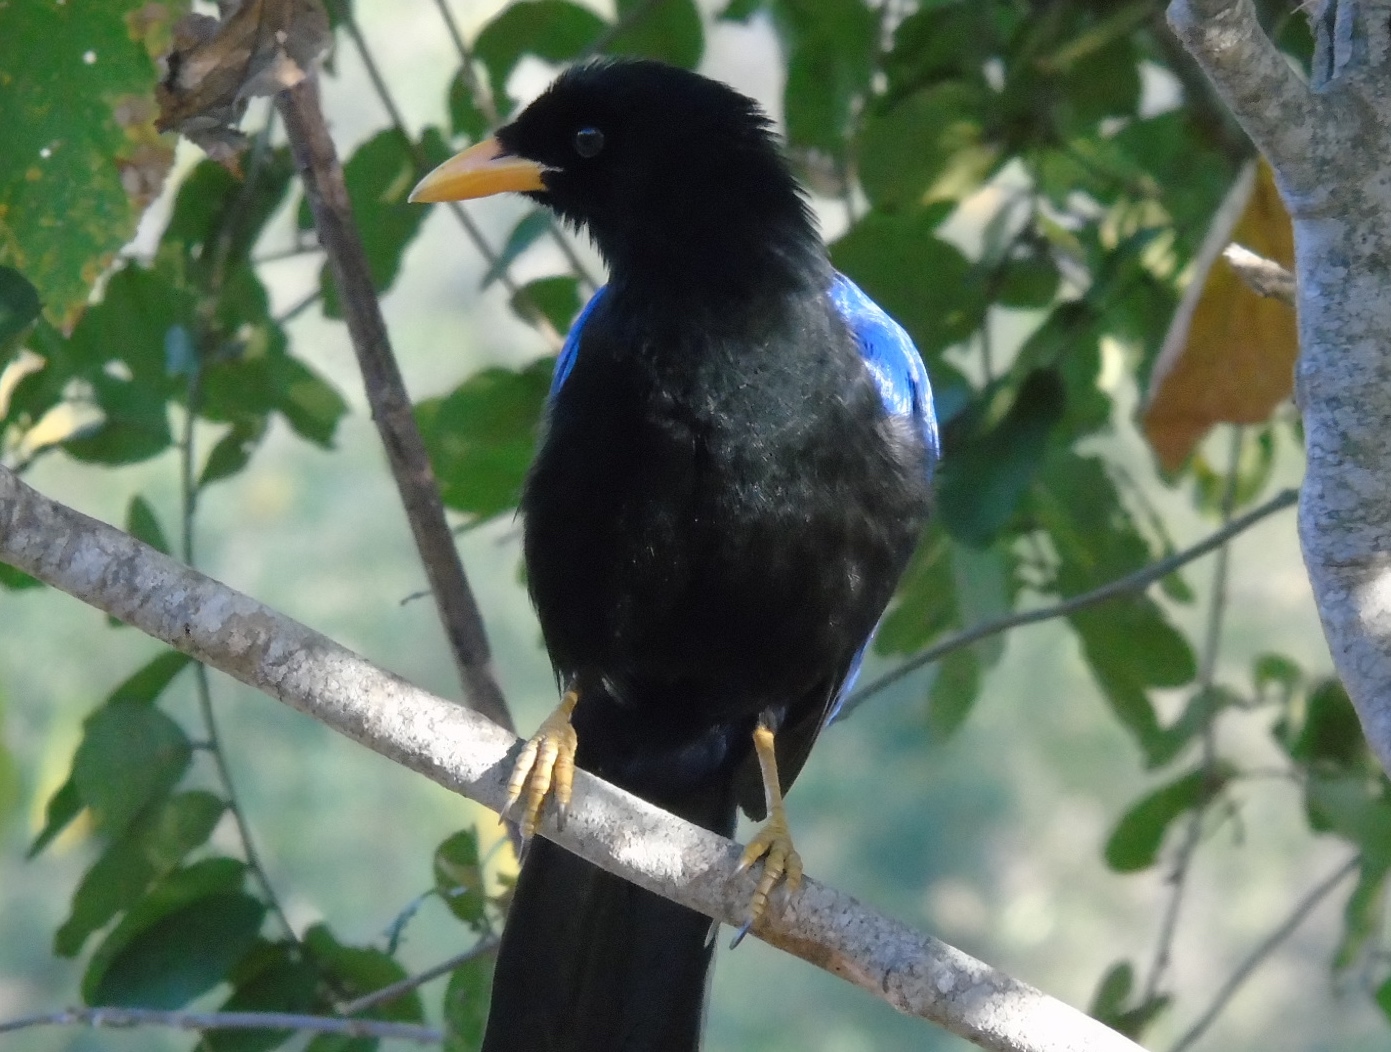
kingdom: Animalia
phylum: Chordata
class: Aves
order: Passeriformes
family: Corvidae
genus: Cyanocorax
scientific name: Cyanocorax beecheii
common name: Purplish-backed jay
